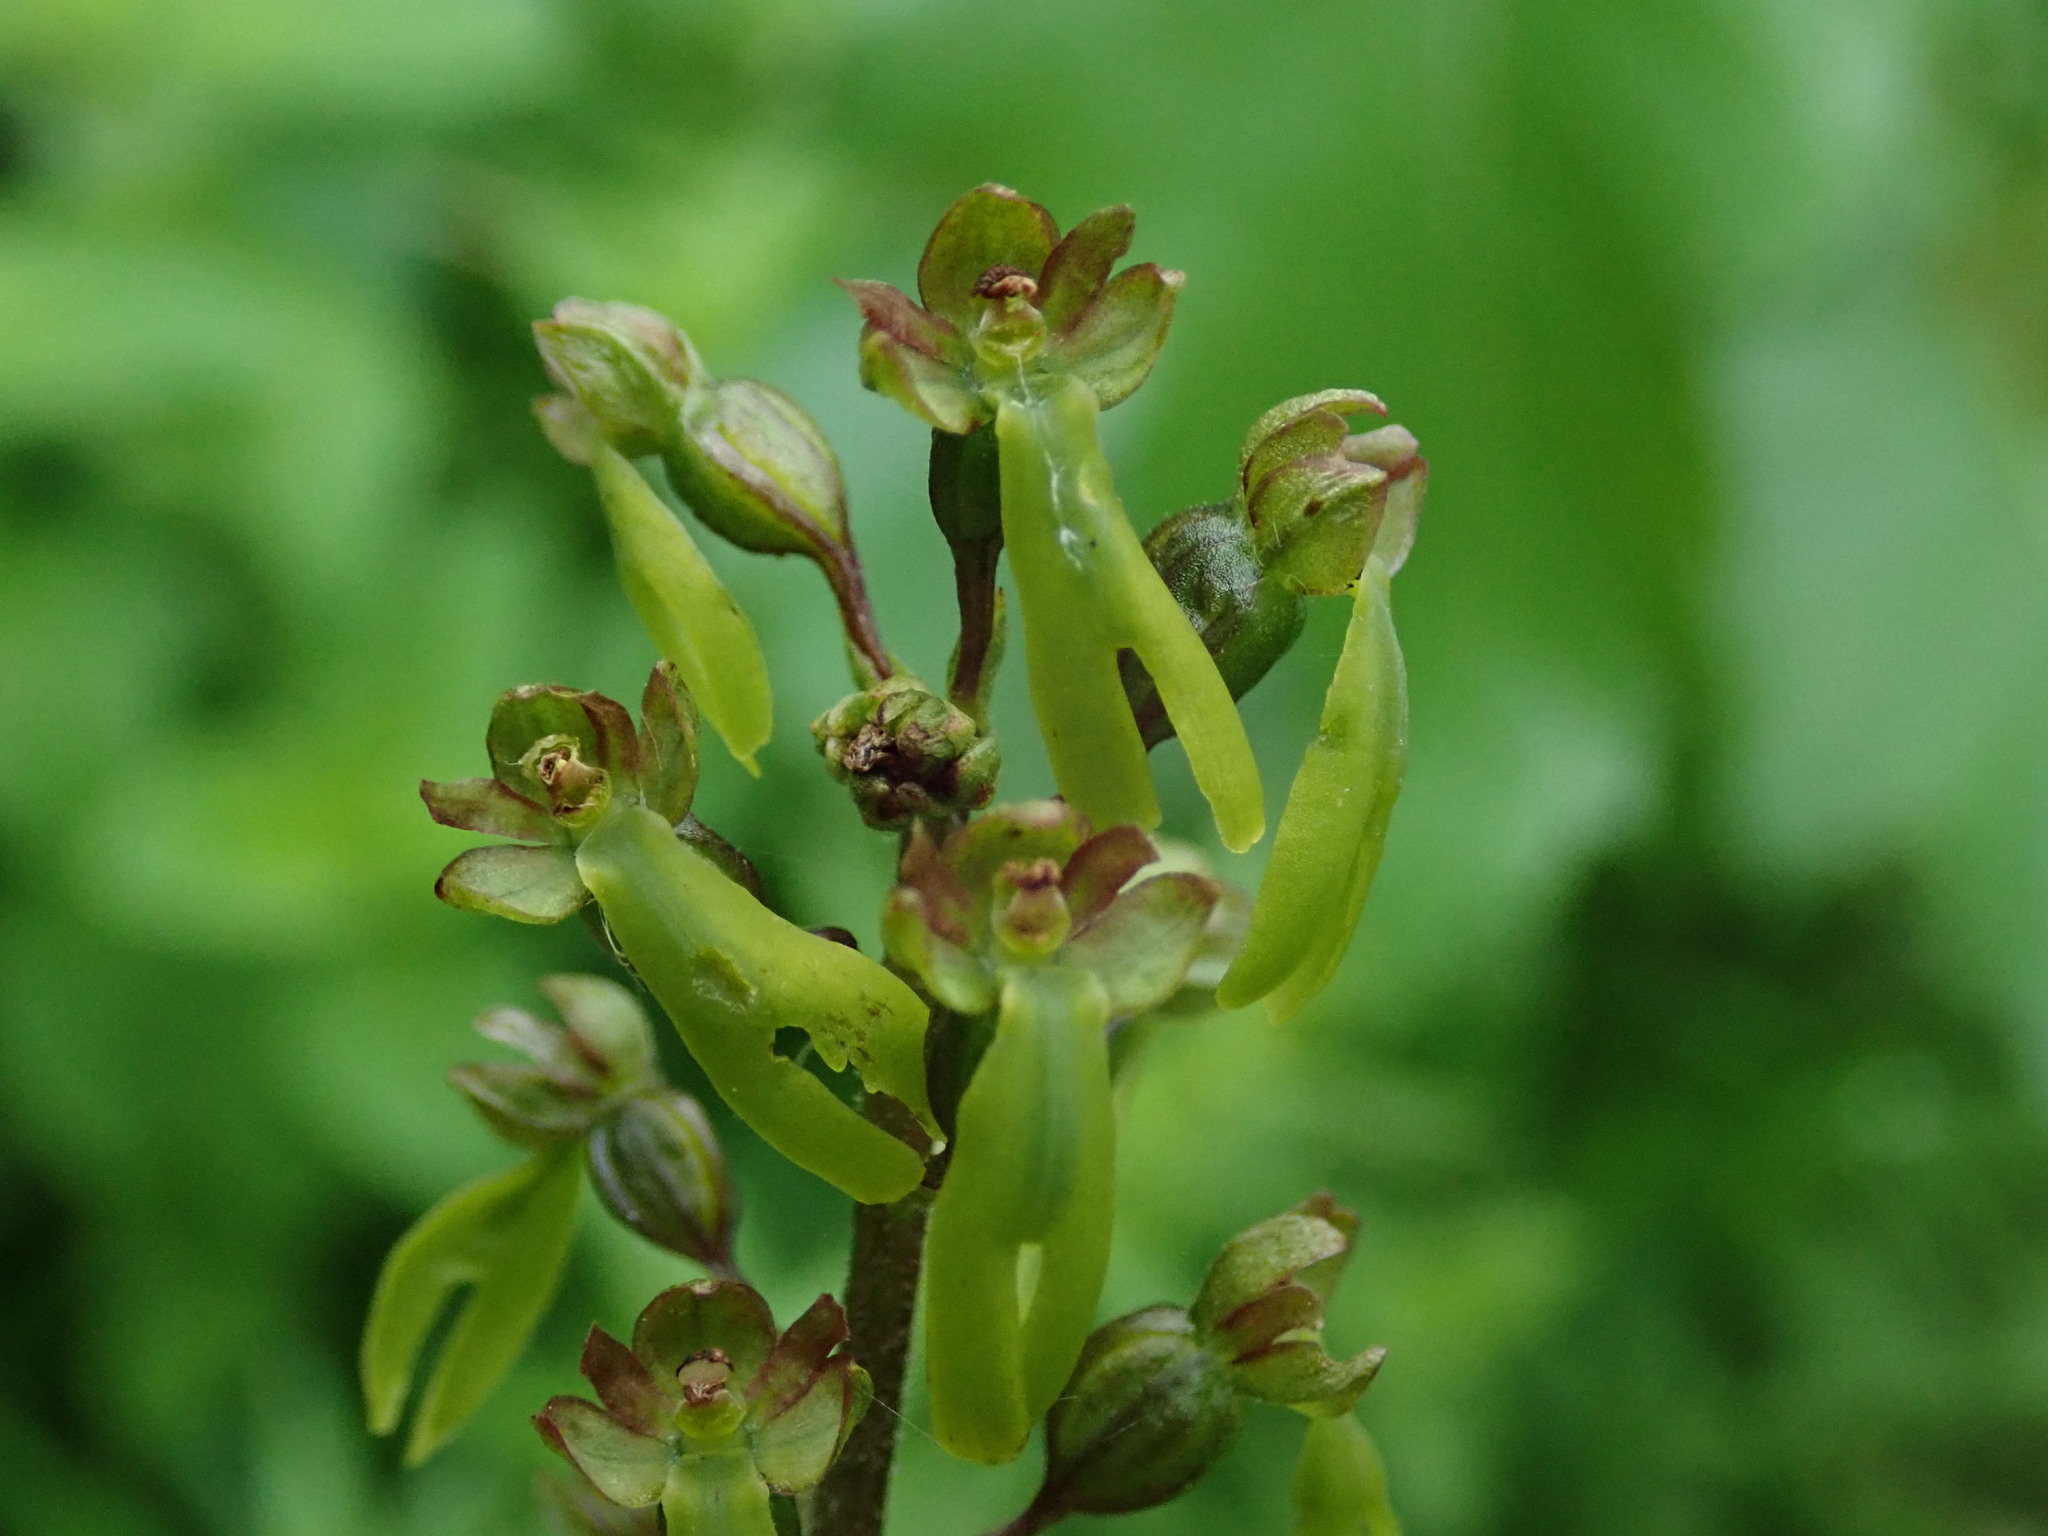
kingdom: Plantae
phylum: Tracheophyta
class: Liliopsida
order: Asparagales
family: Orchidaceae
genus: Neottia
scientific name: Neottia ovata
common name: Common twayblade
